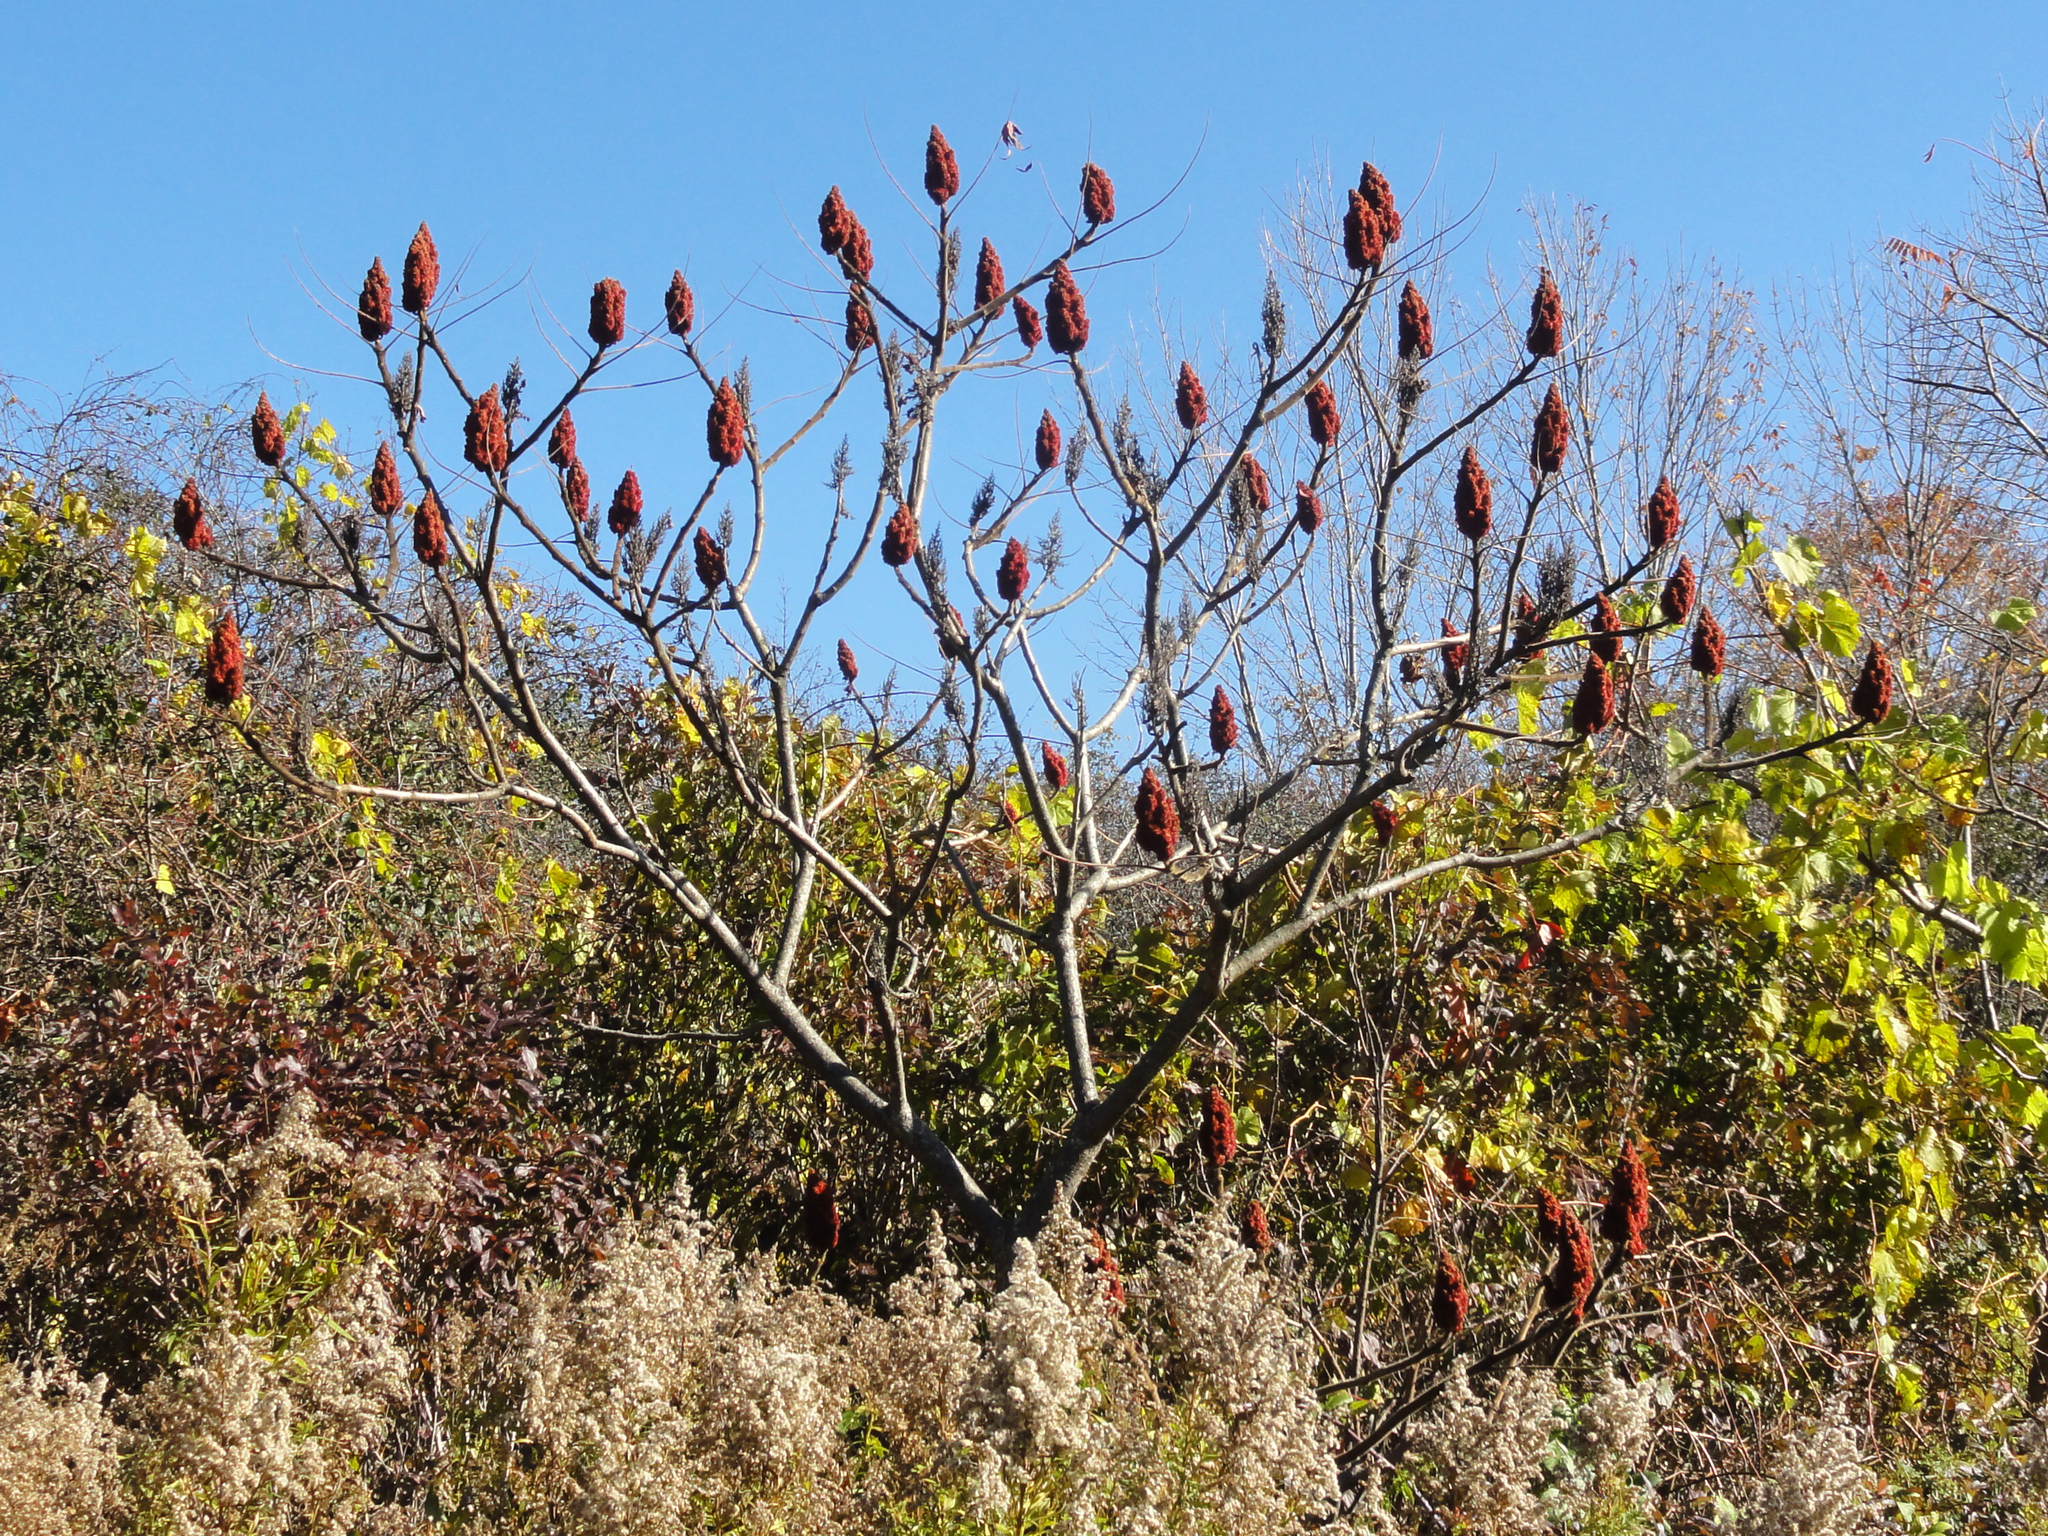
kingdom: Plantae
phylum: Tracheophyta
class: Magnoliopsida
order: Sapindales
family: Anacardiaceae
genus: Rhus
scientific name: Rhus typhina
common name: Staghorn sumac
